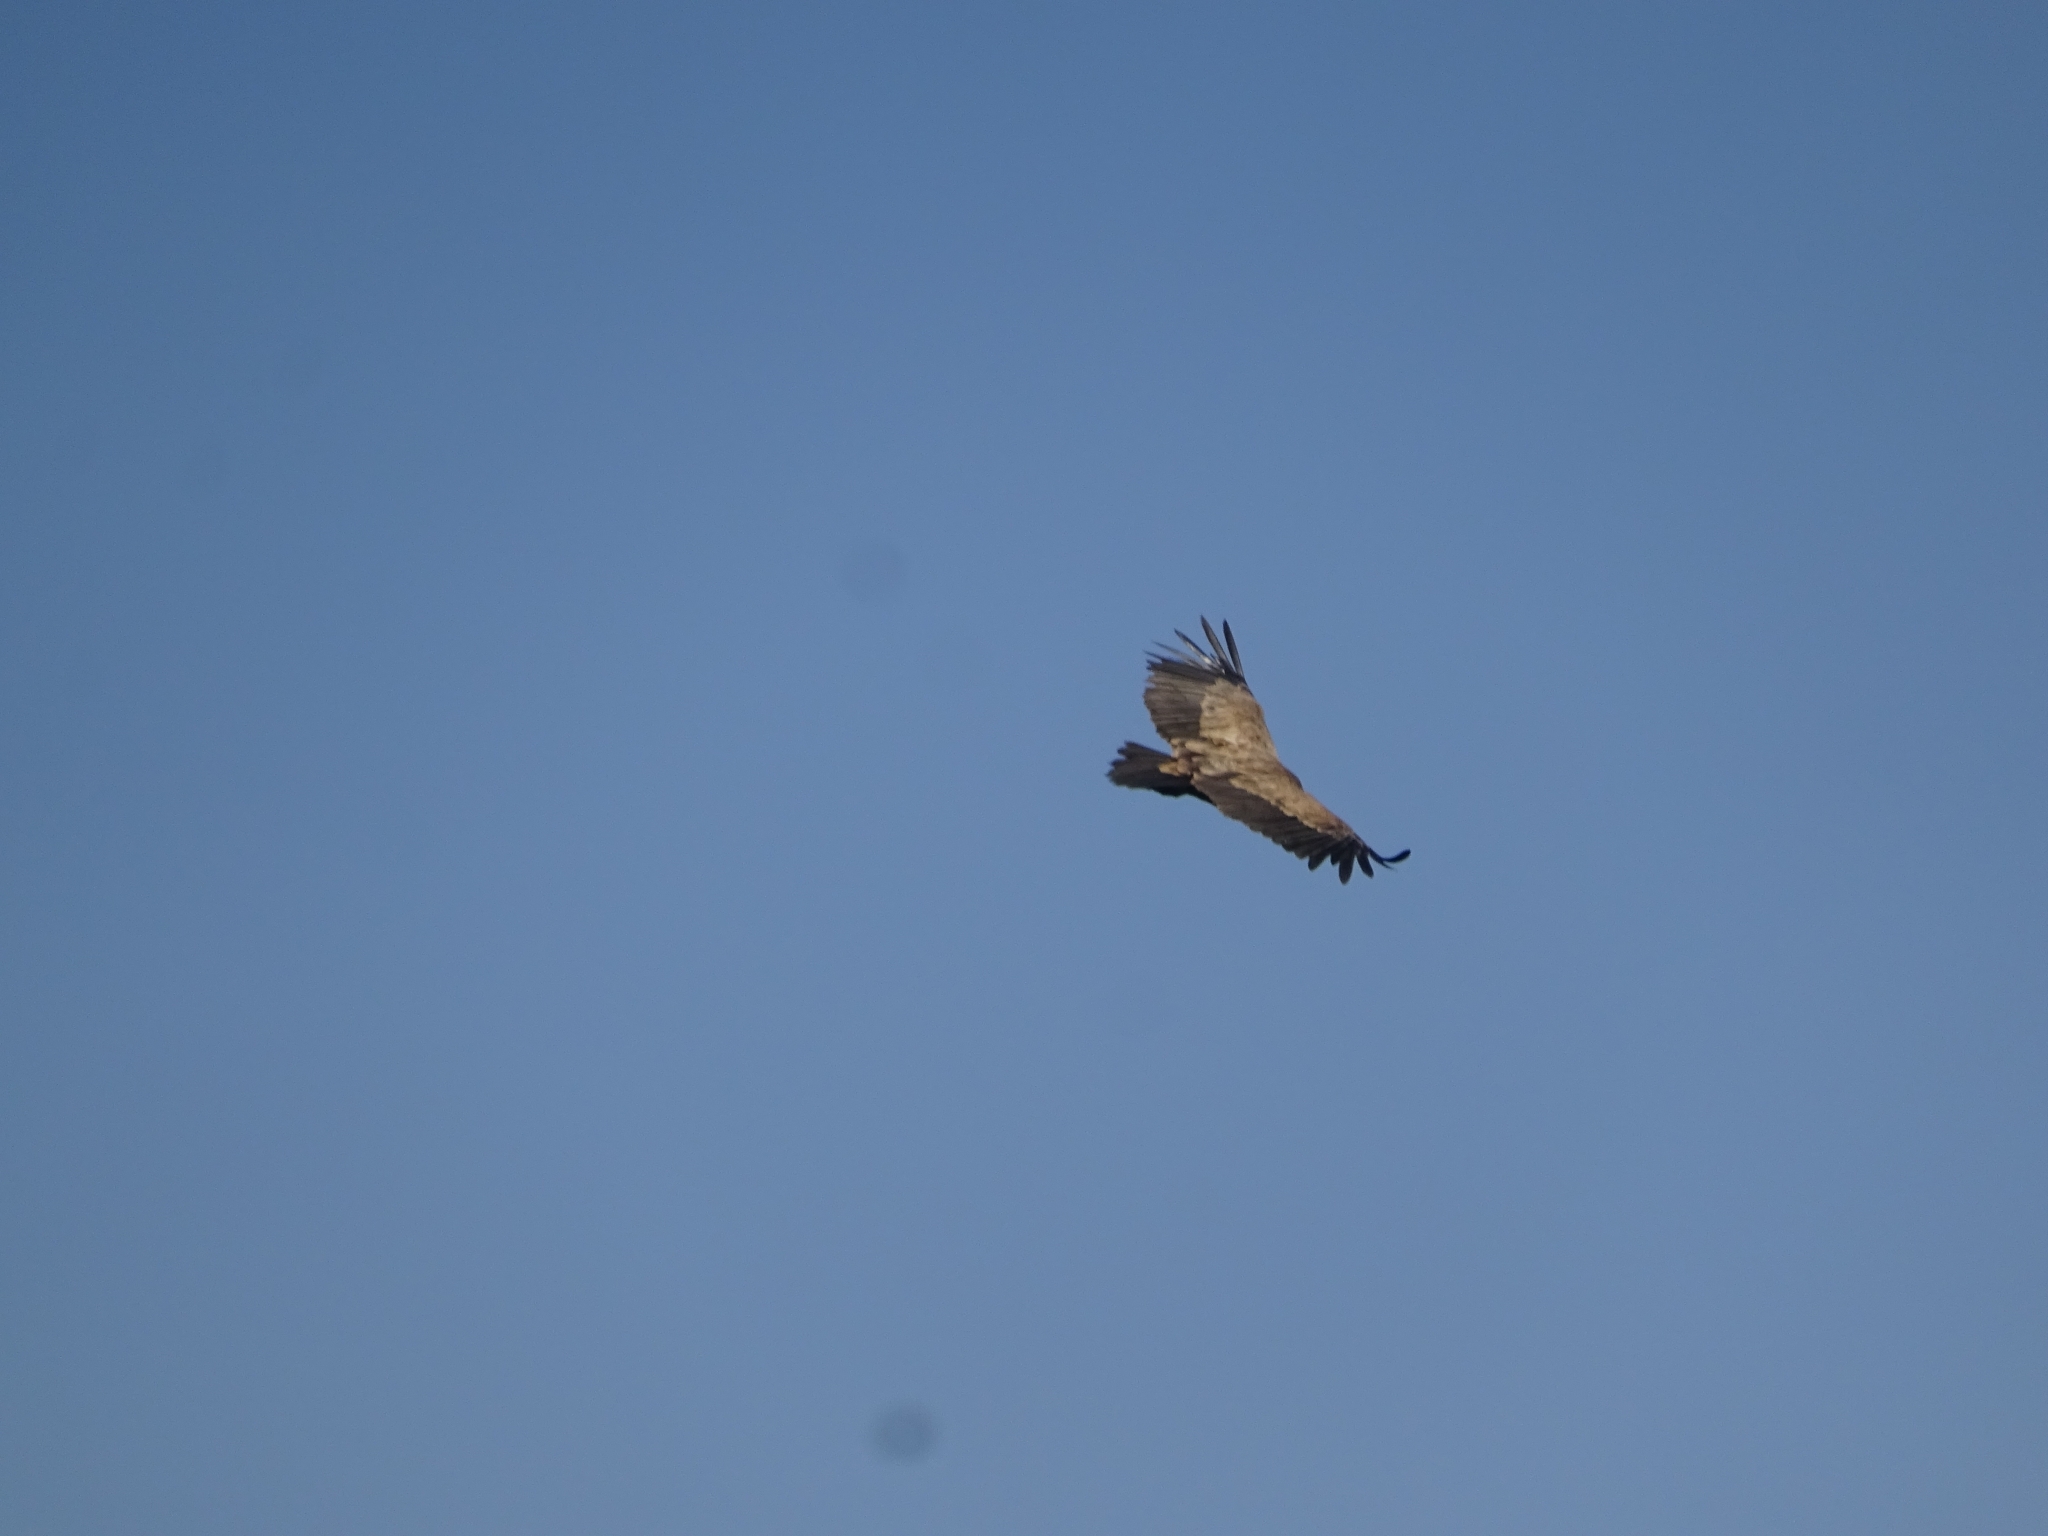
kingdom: Animalia
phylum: Chordata
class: Aves
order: Accipitriformes
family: Accipitridae
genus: Gyps
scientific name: Gyps fulvus
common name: Griffon vulture
